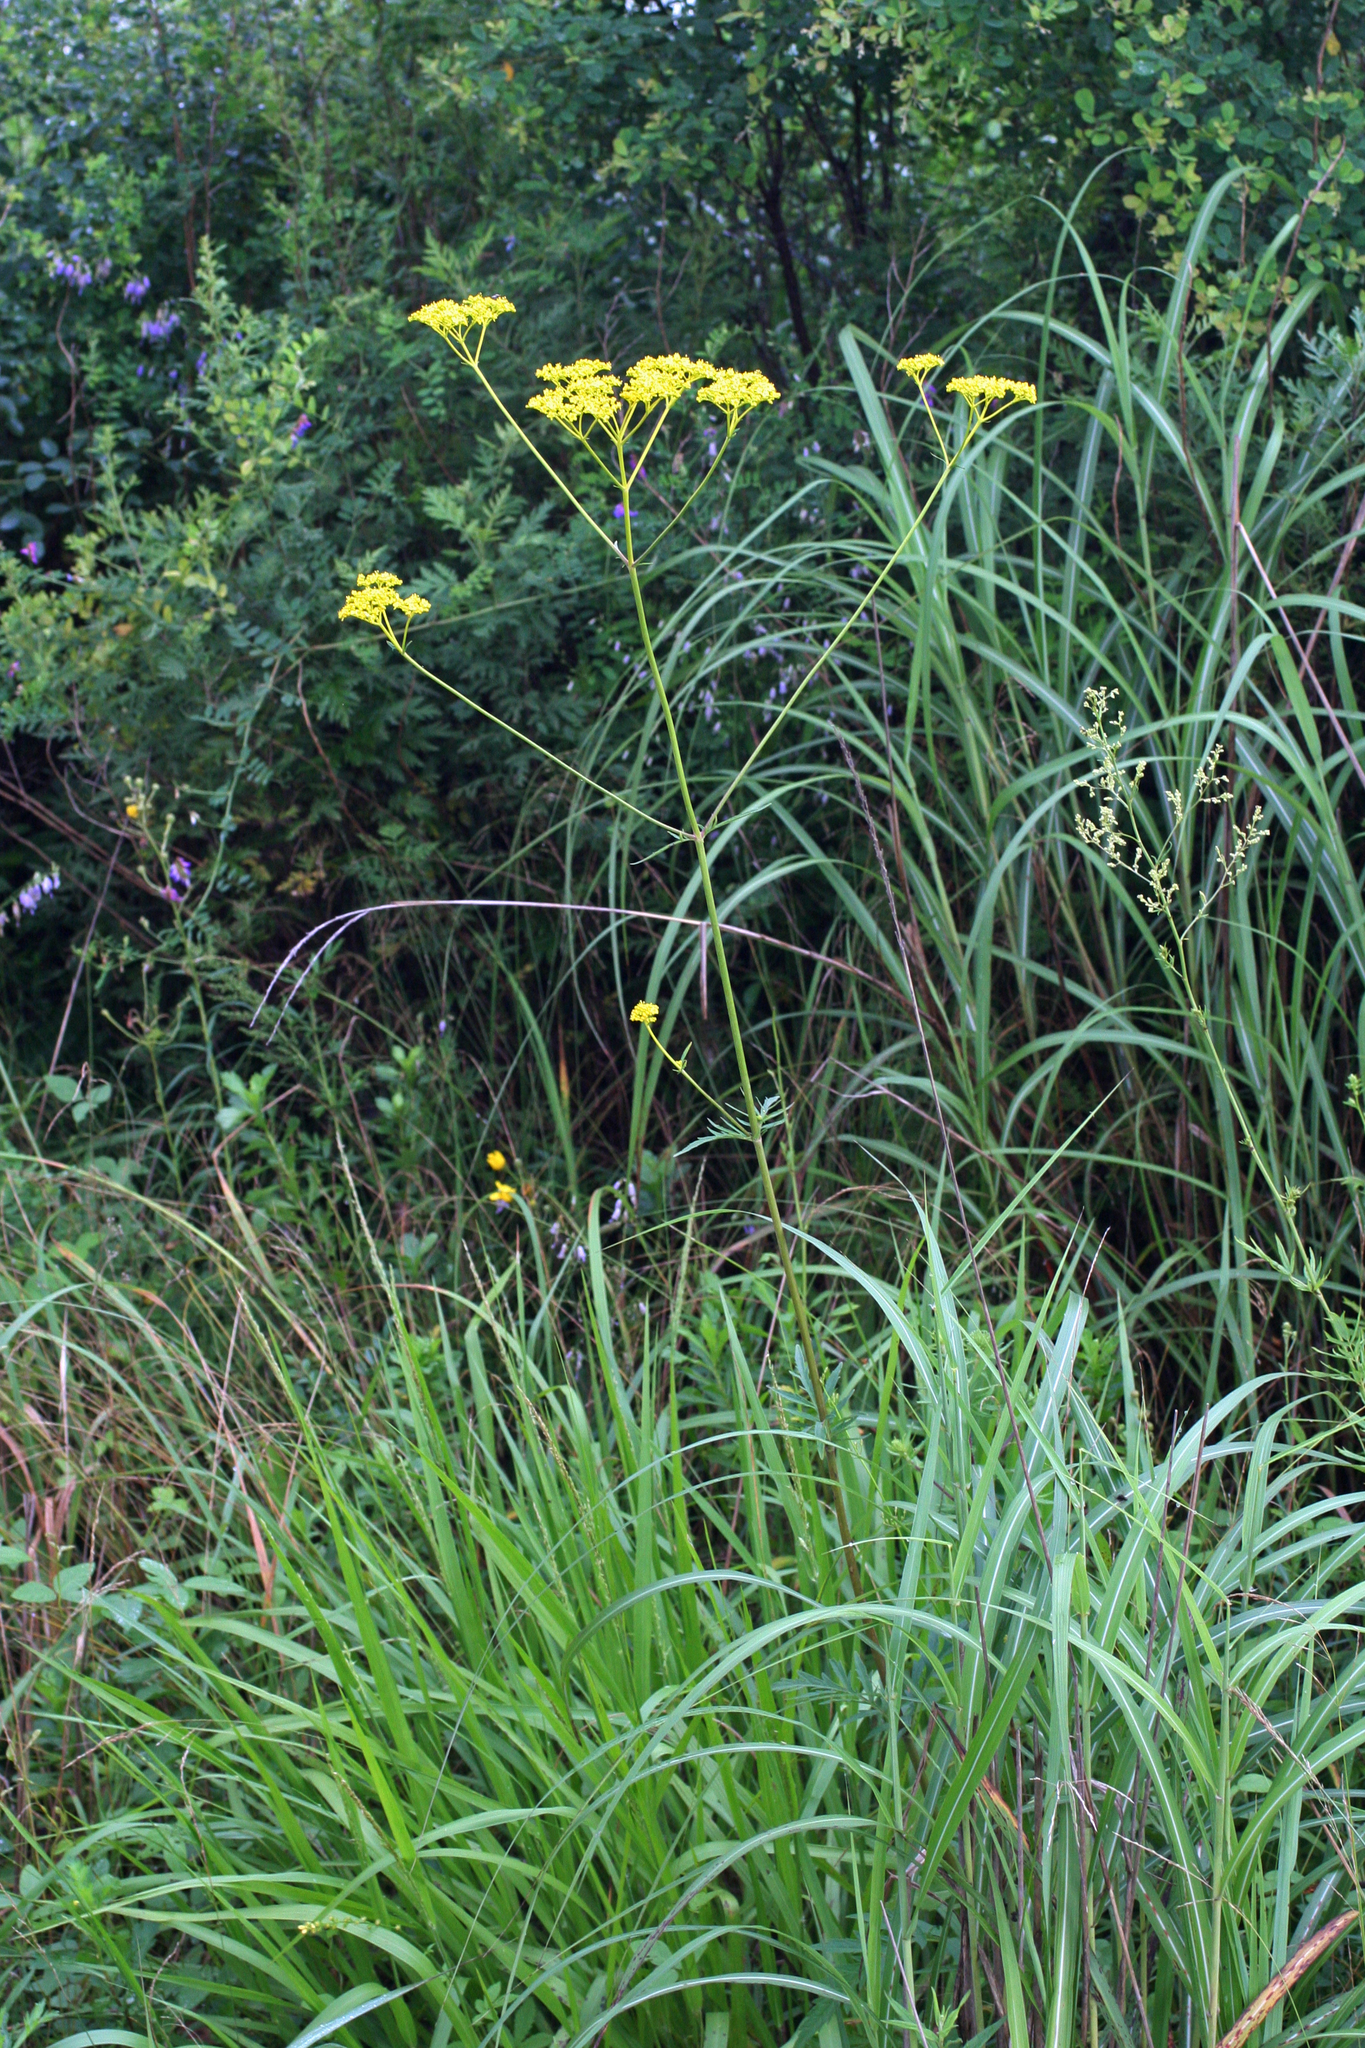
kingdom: Plantae
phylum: Tracheophyta
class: Magnoliopsida
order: Dipsacales
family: Caprifoliaceae
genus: Patrinia
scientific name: Patrinia scabiosifolia
